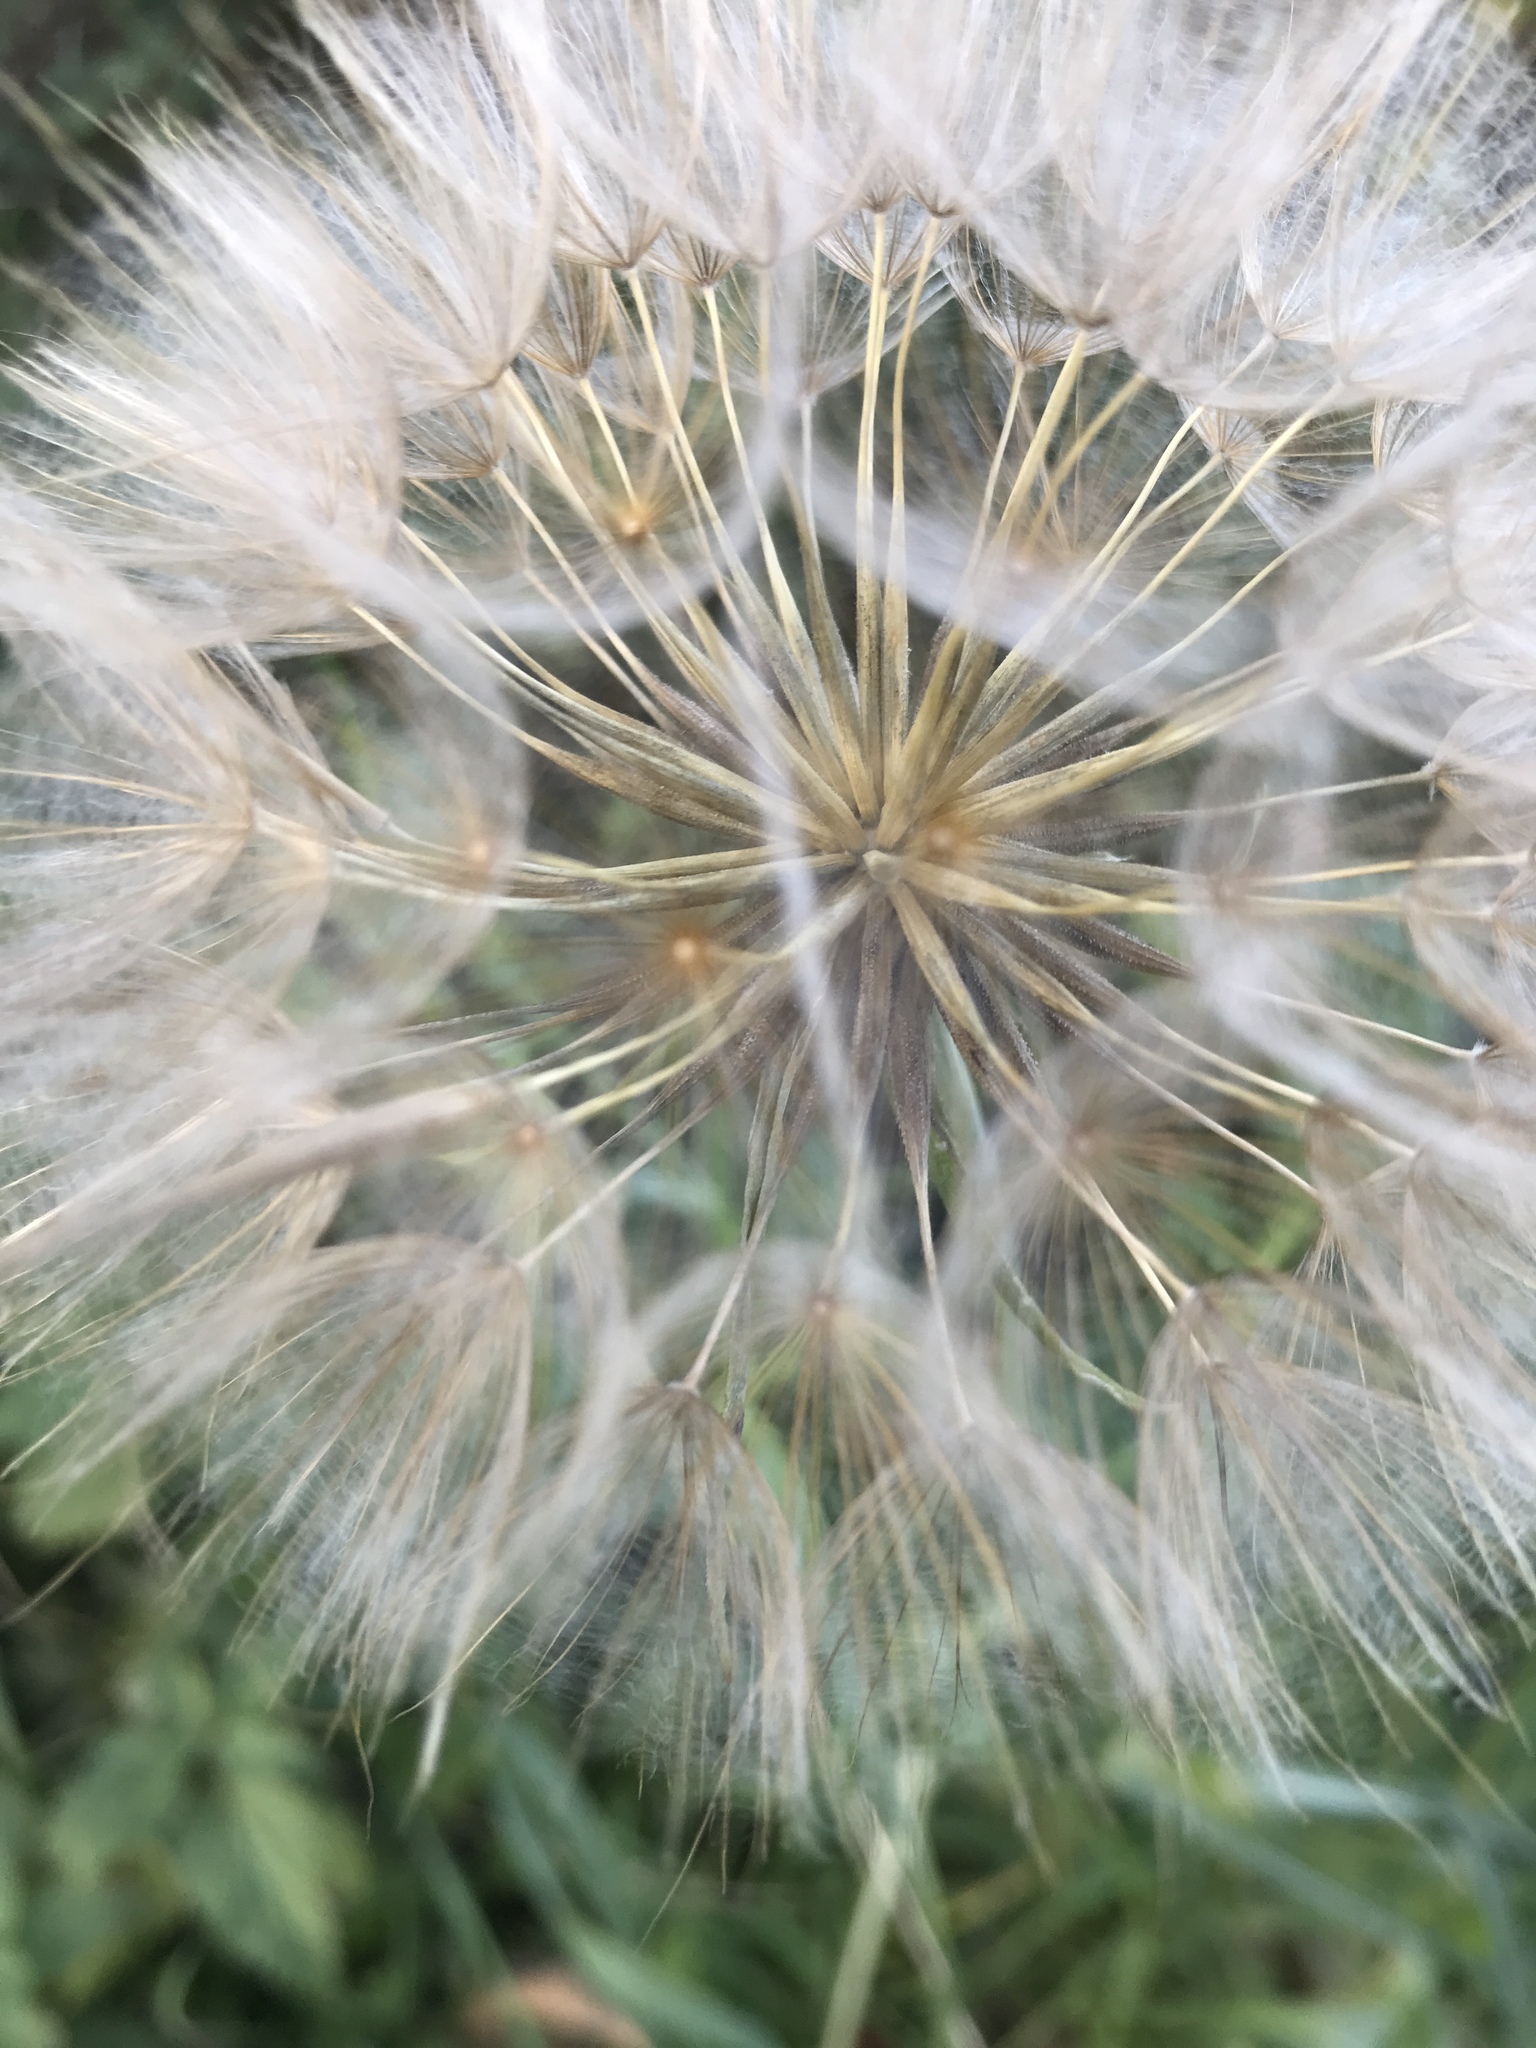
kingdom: Plantae
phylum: Tracheophyta
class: Magnoliopsida
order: Asterales
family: Asteraceae
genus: Tragopogon
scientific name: Tragopogon pratensis
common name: Goat's-beard
